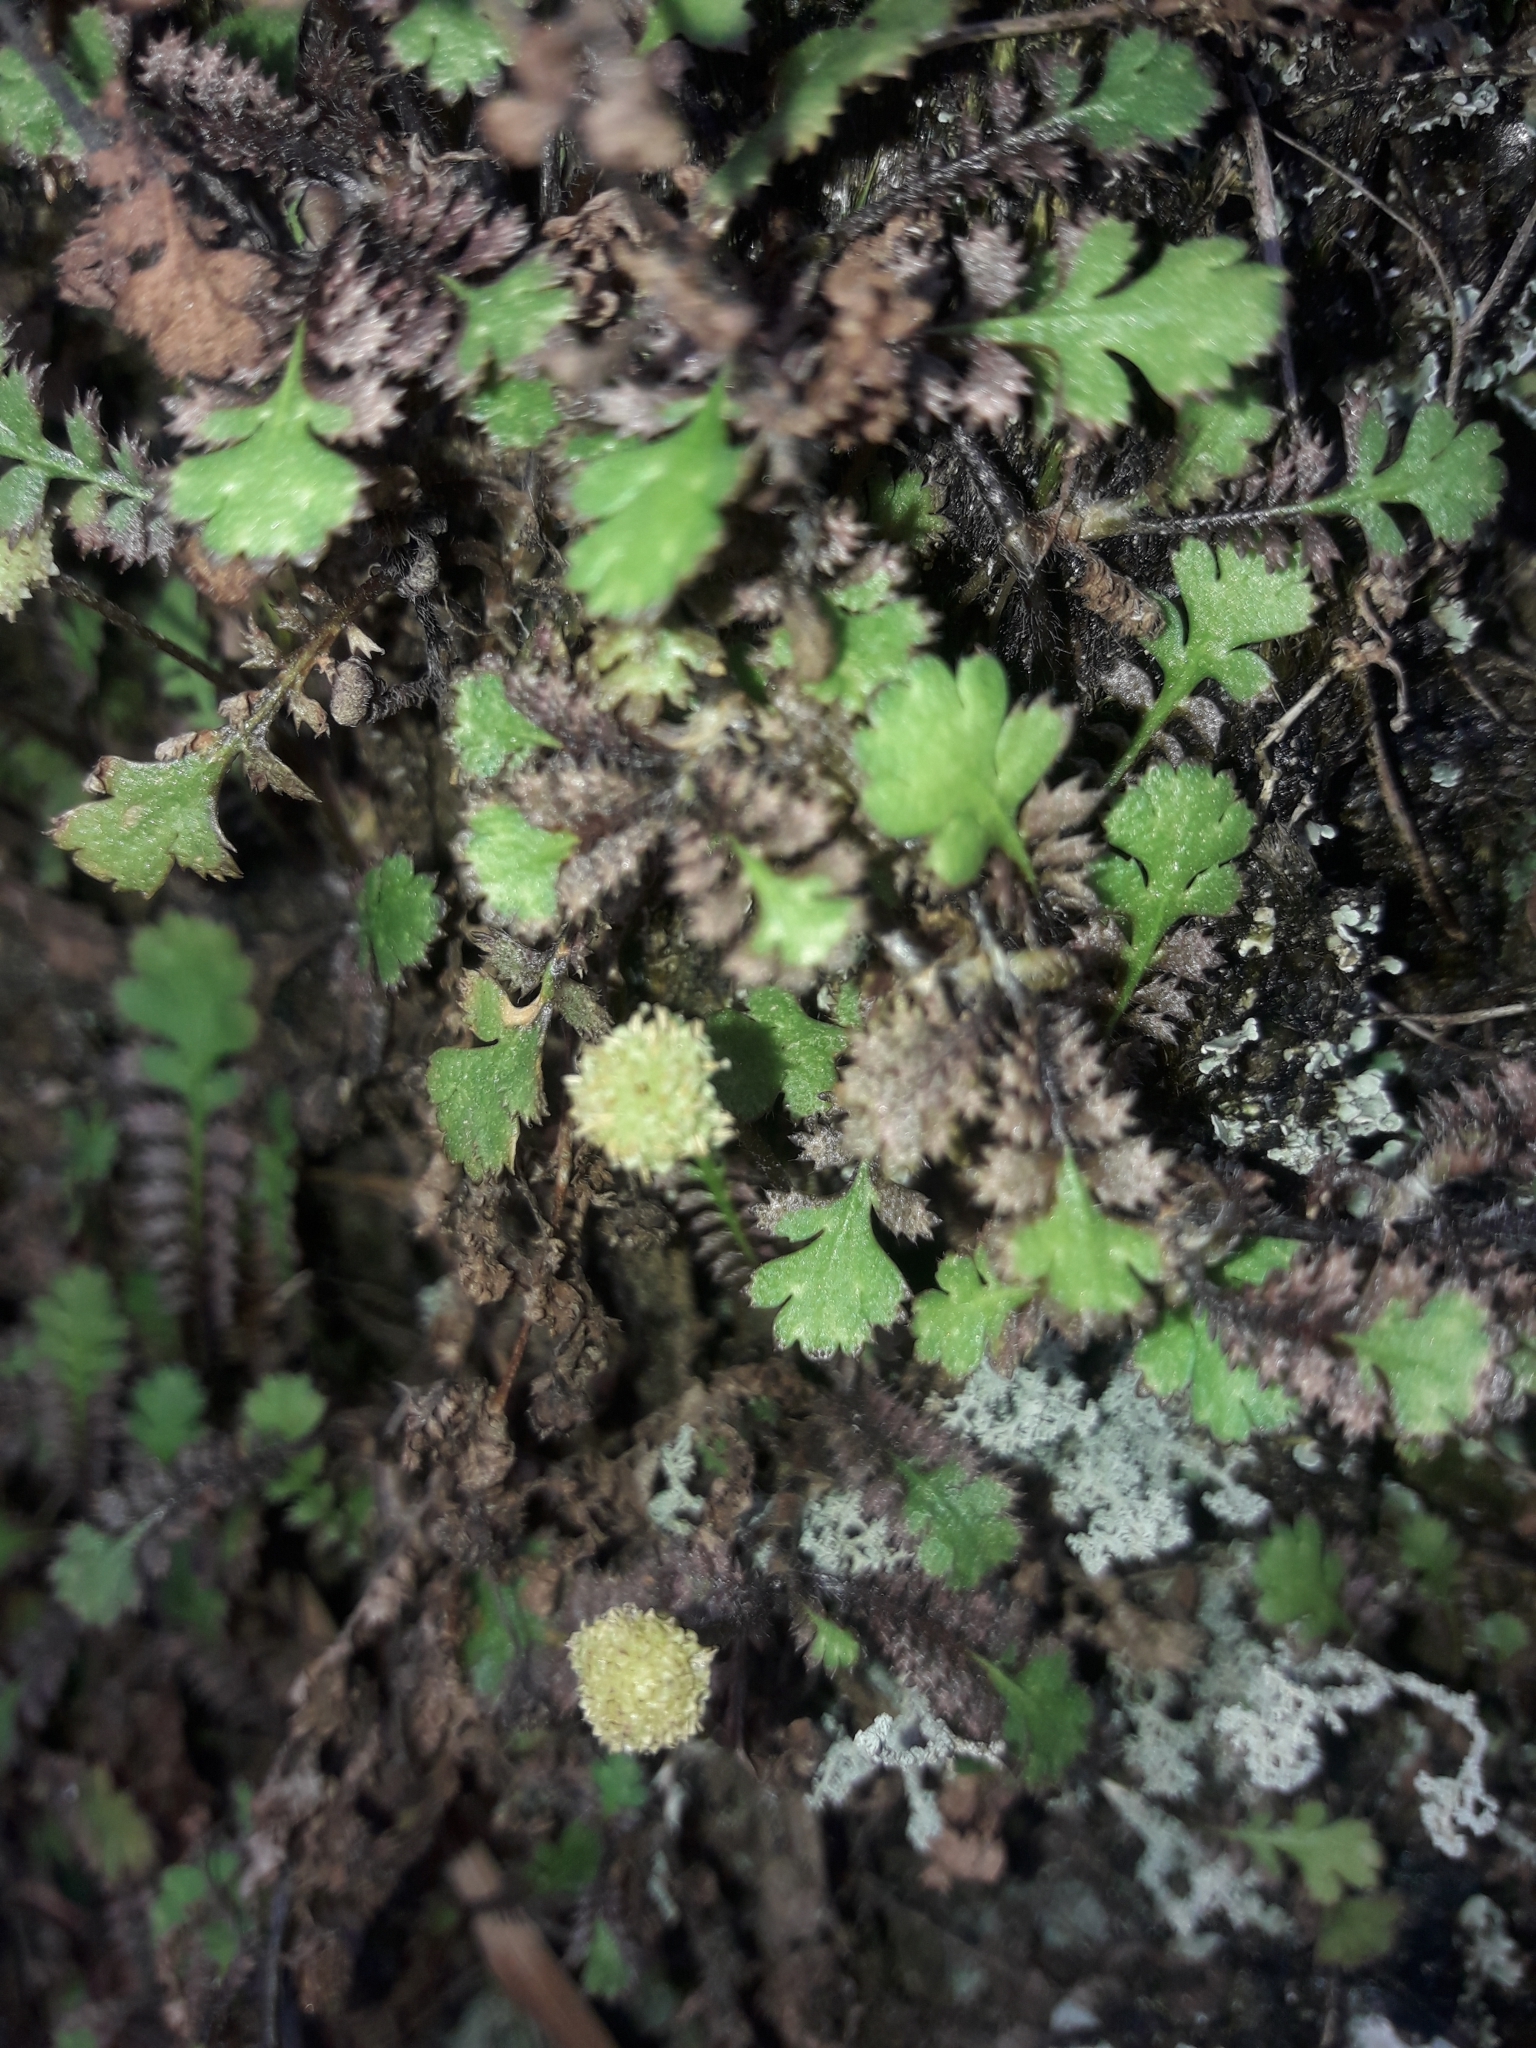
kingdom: Plantae
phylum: Tracheophyta
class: Magnoliopsida
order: Asterales
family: Asteraceae
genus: Leptinella
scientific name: Leptinella squalida
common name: New zealand brass-buttons
